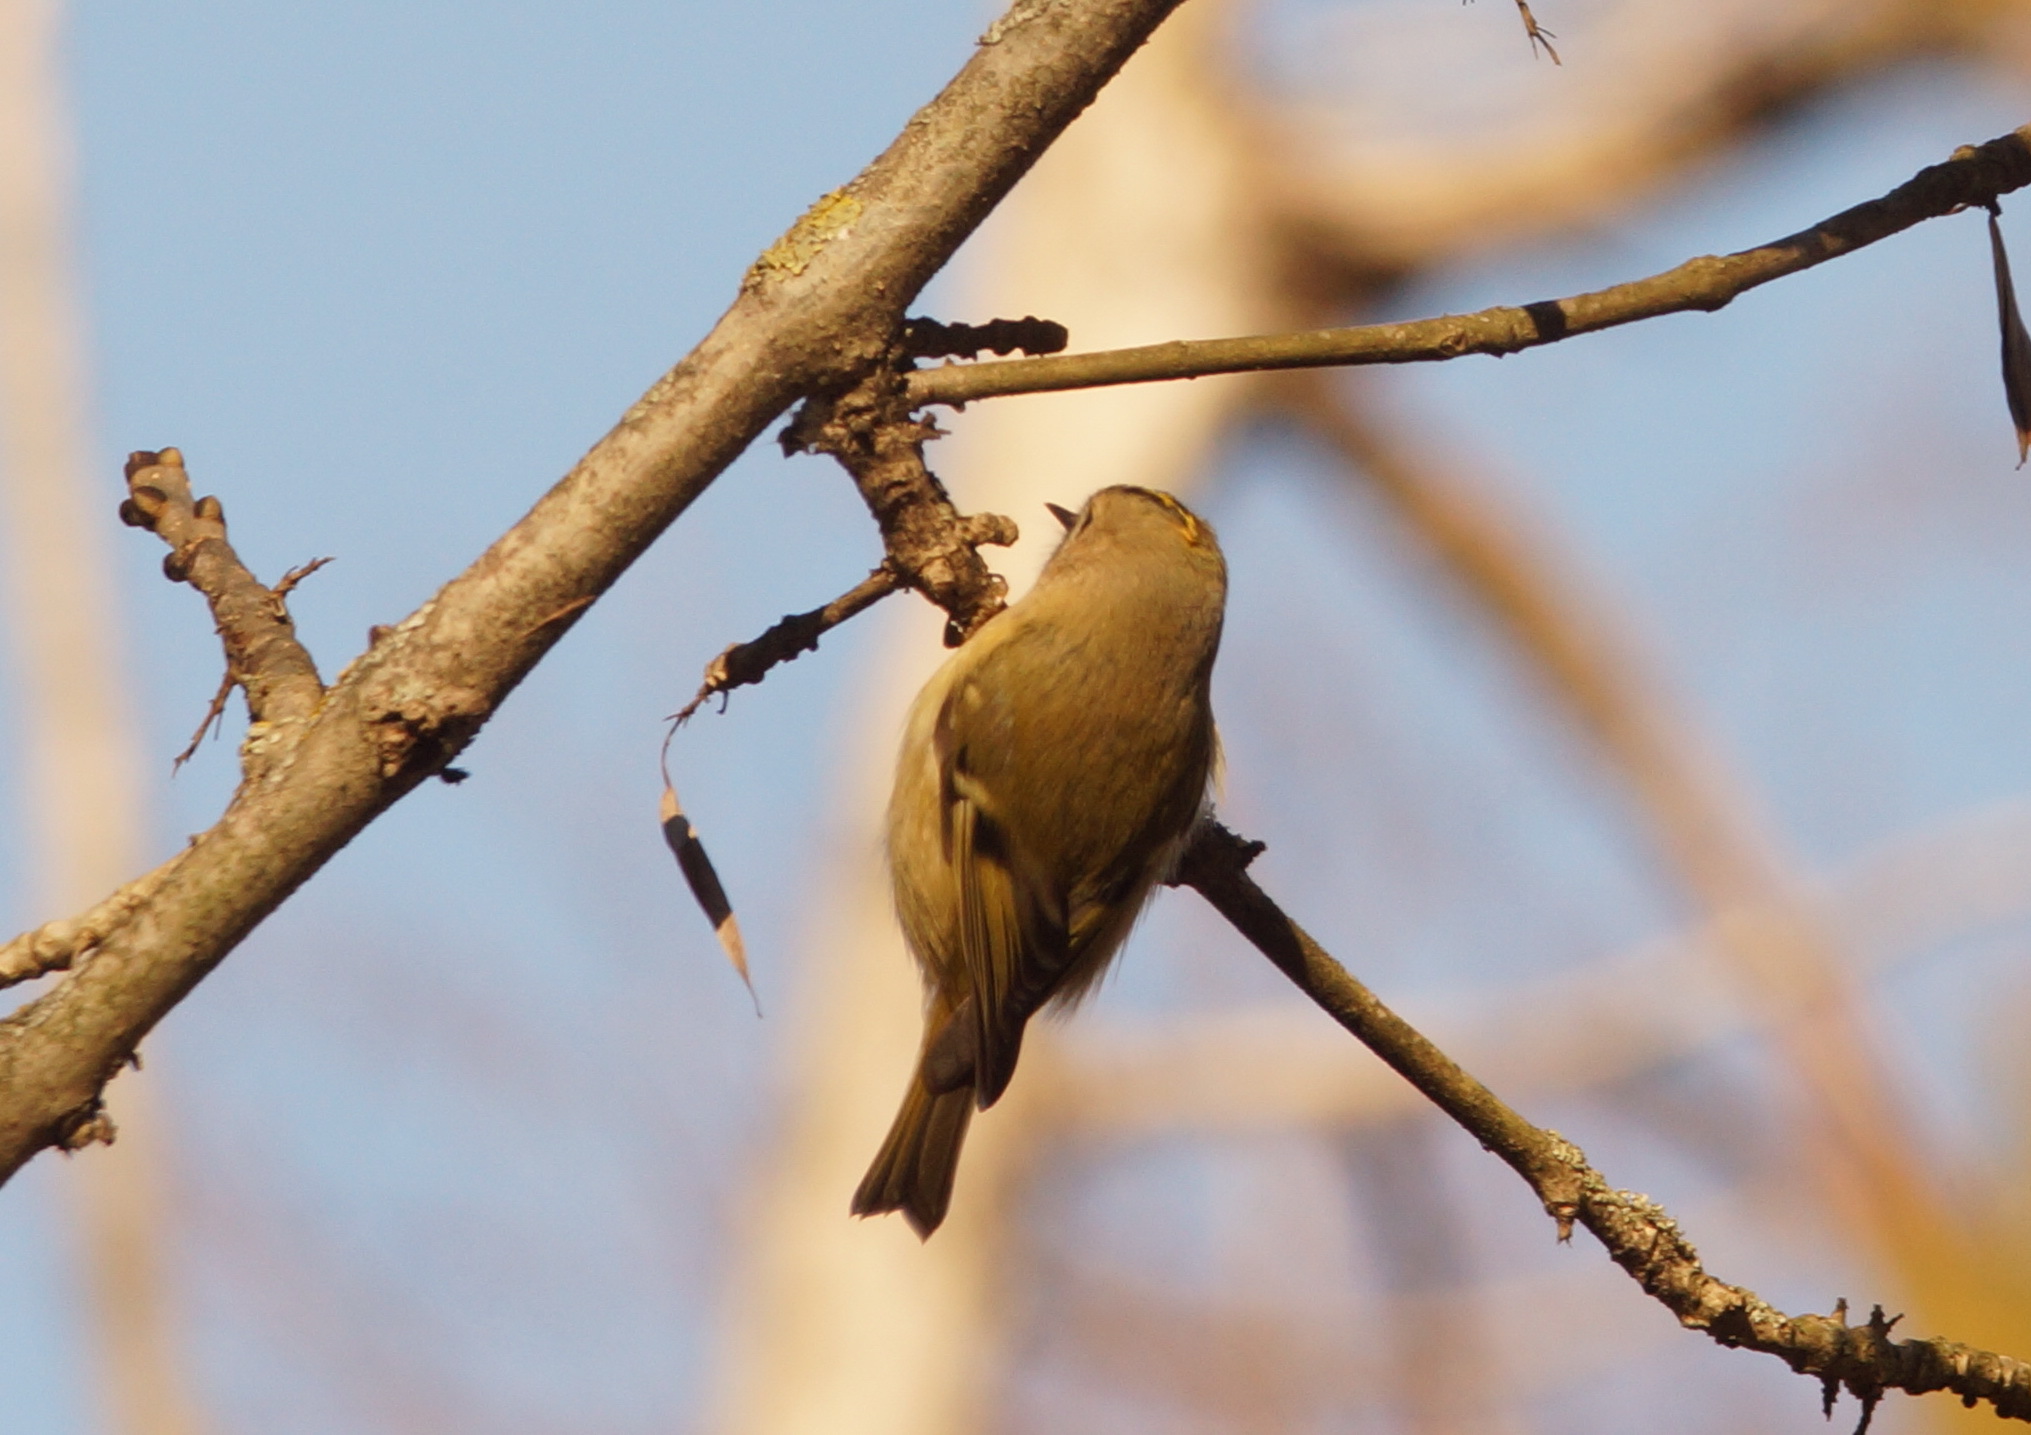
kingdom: Animalia
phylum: Chordata
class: Aves
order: Passeriformes
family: Regulidae
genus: Regulus
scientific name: Regulus regulus
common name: Goldcrest
